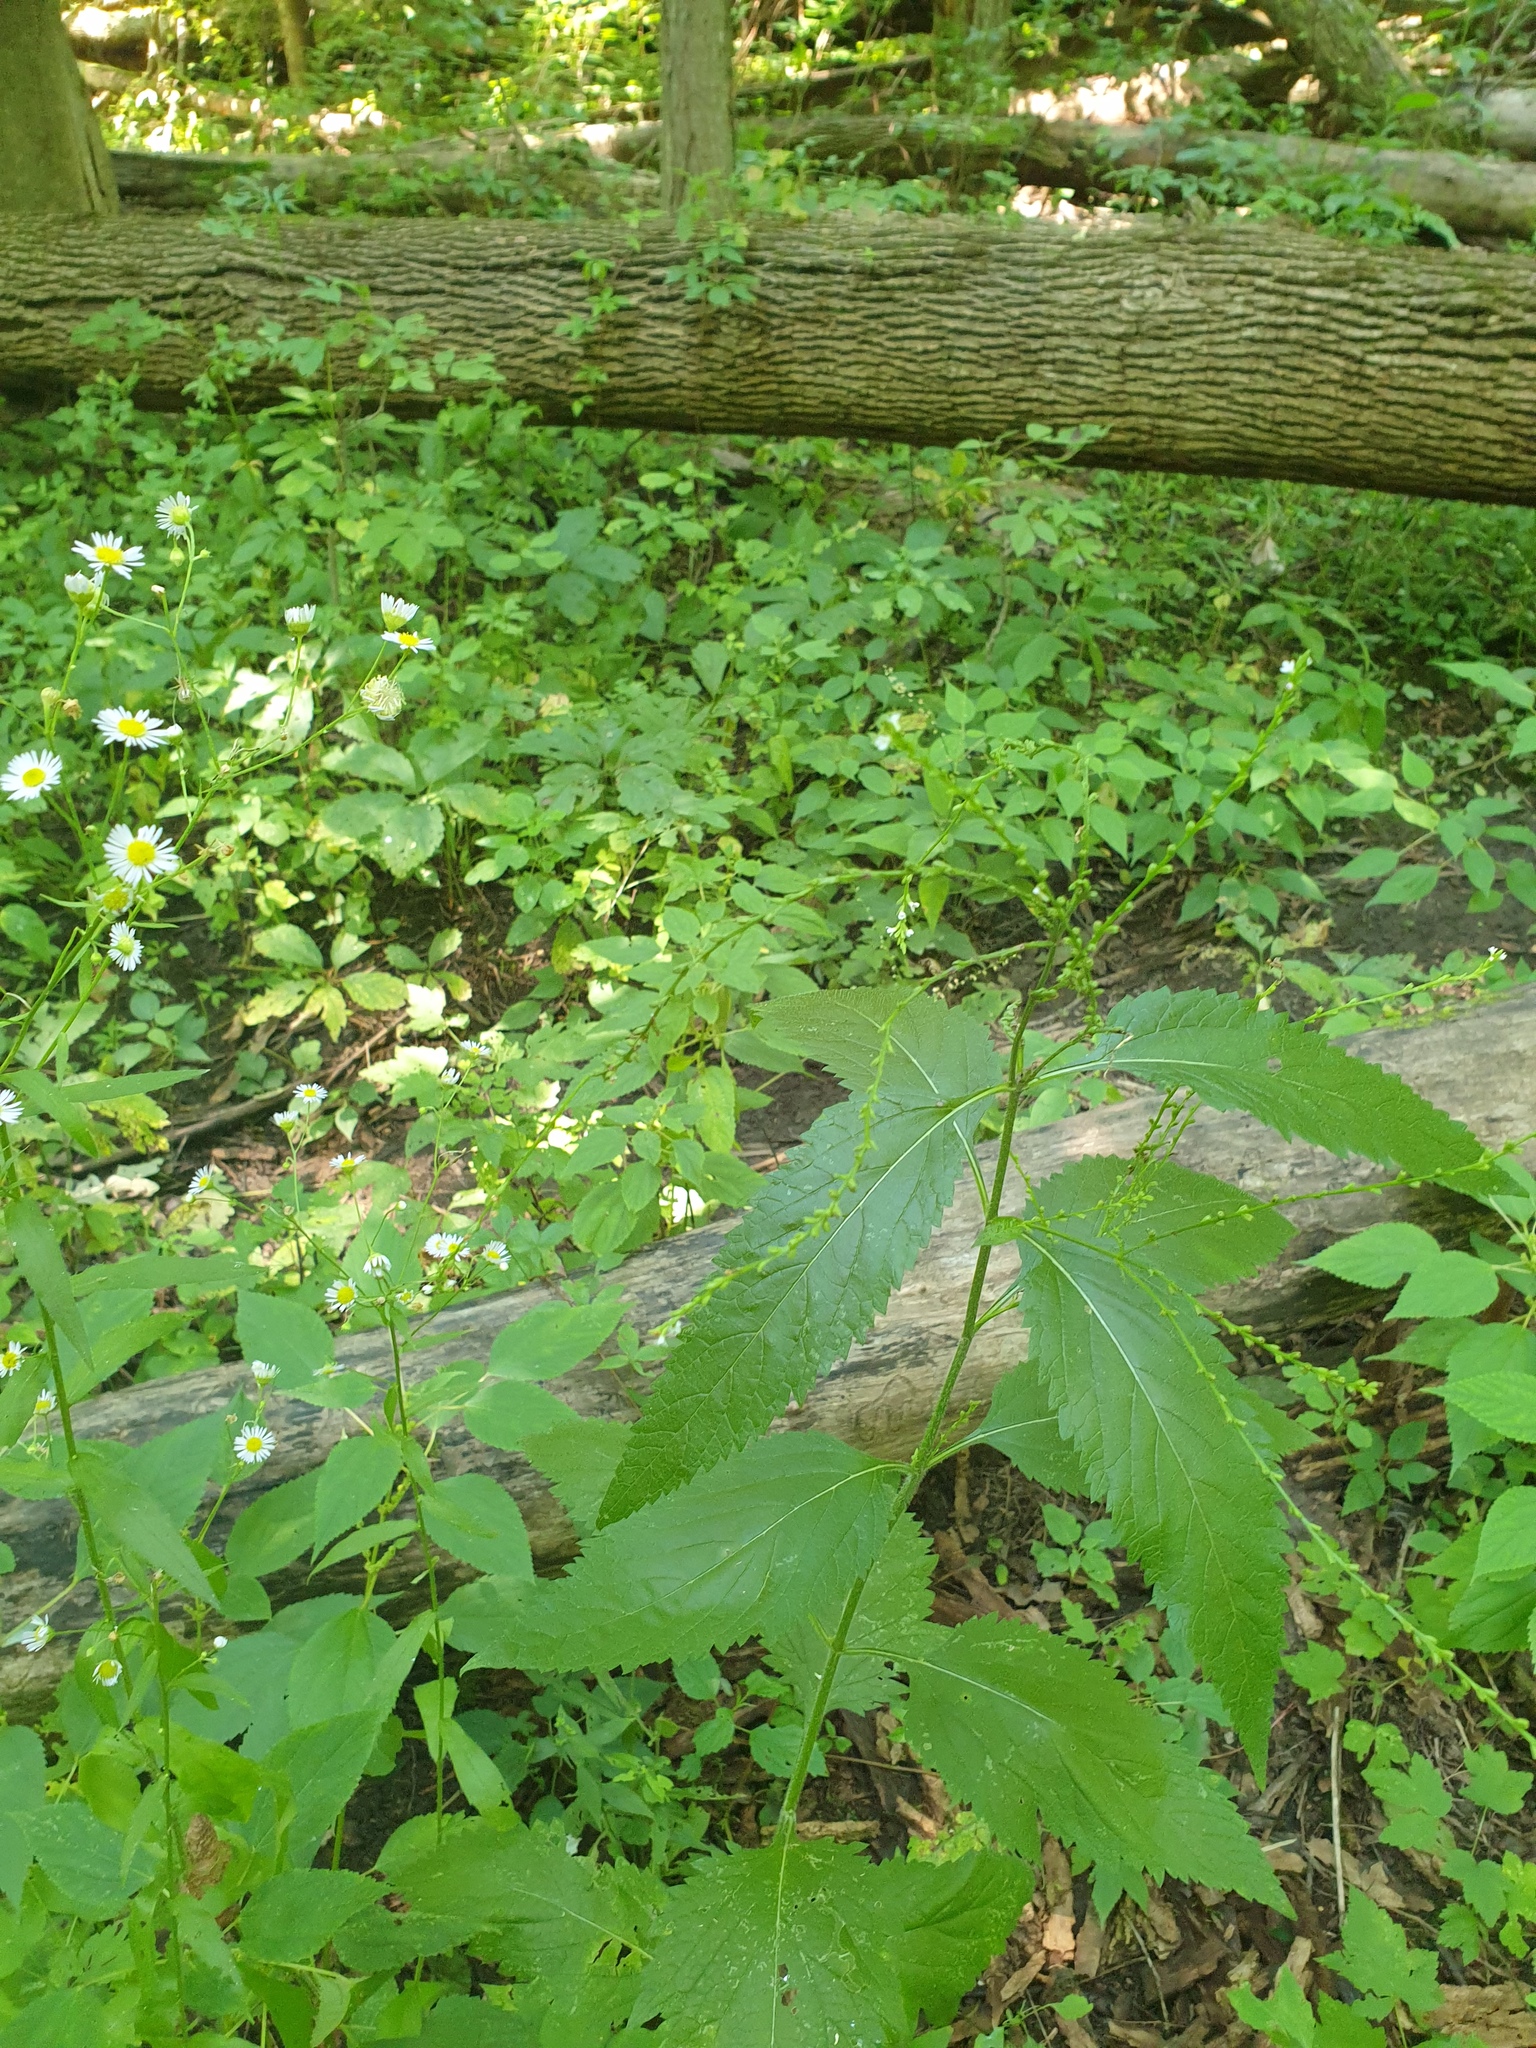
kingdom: Plantae
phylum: Tracheophyta
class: Magnoliopsida
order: Lamiales
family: Verbenaceae
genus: Verbena
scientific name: Verbena urticifolia
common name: Nettle-leaved vervain
